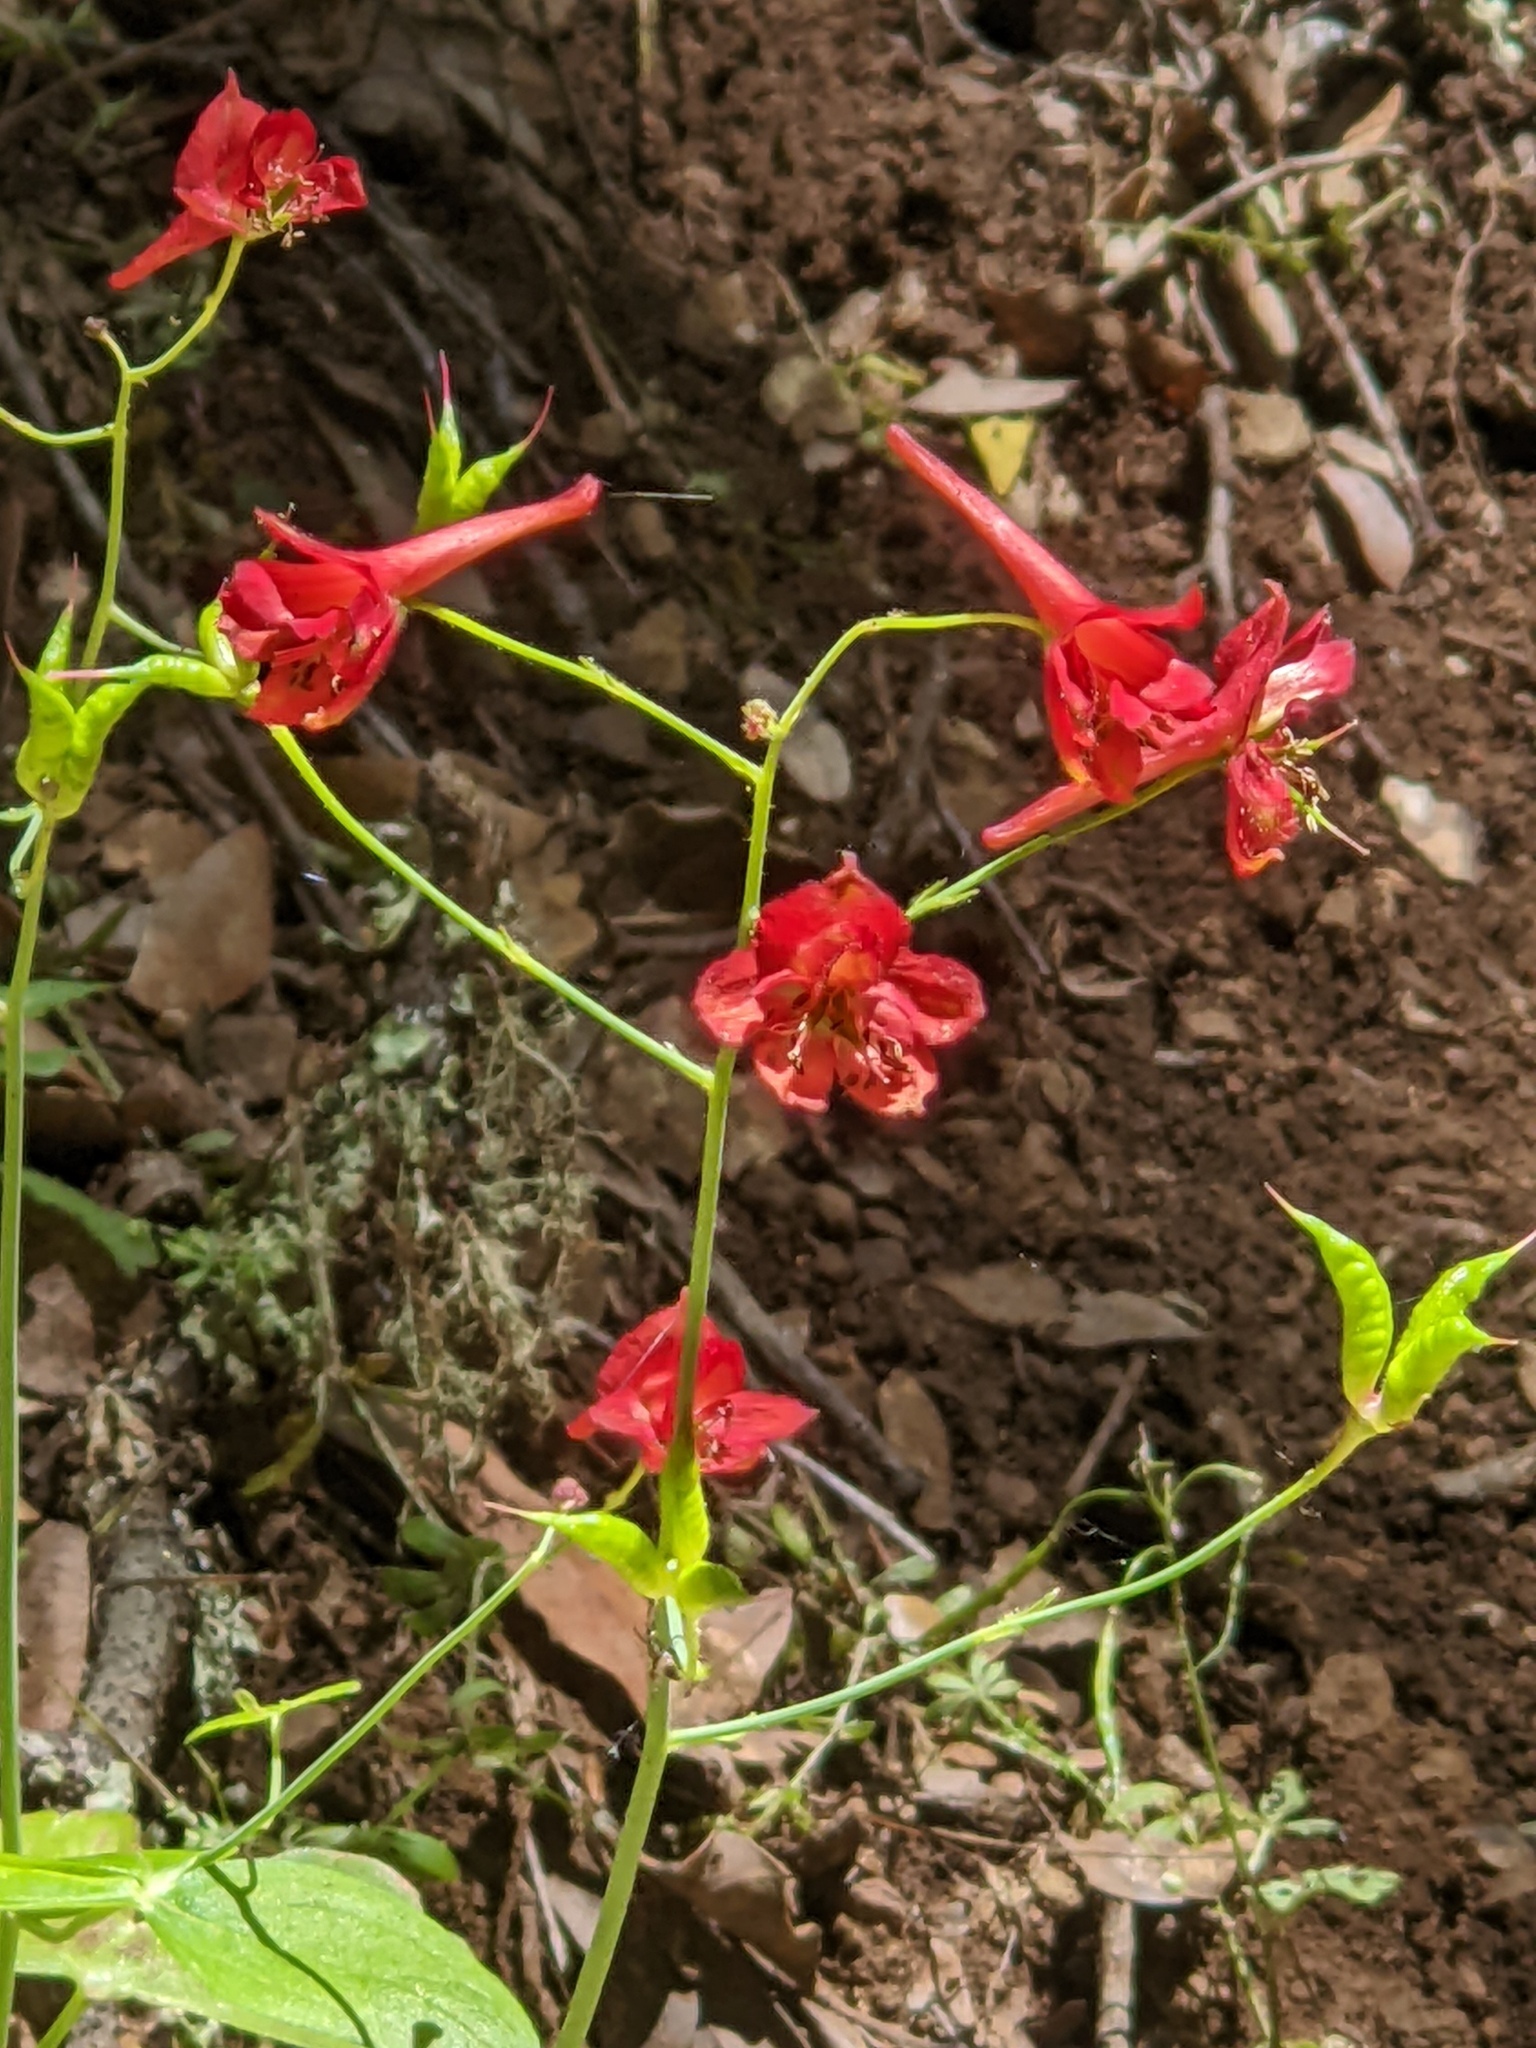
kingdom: Plantae
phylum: Tracheophyta
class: Magnoliopsida
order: Ranunculales
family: Ranunculaceae
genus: Delphinium
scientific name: Delphinium nudicaule
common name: Red larkspur
